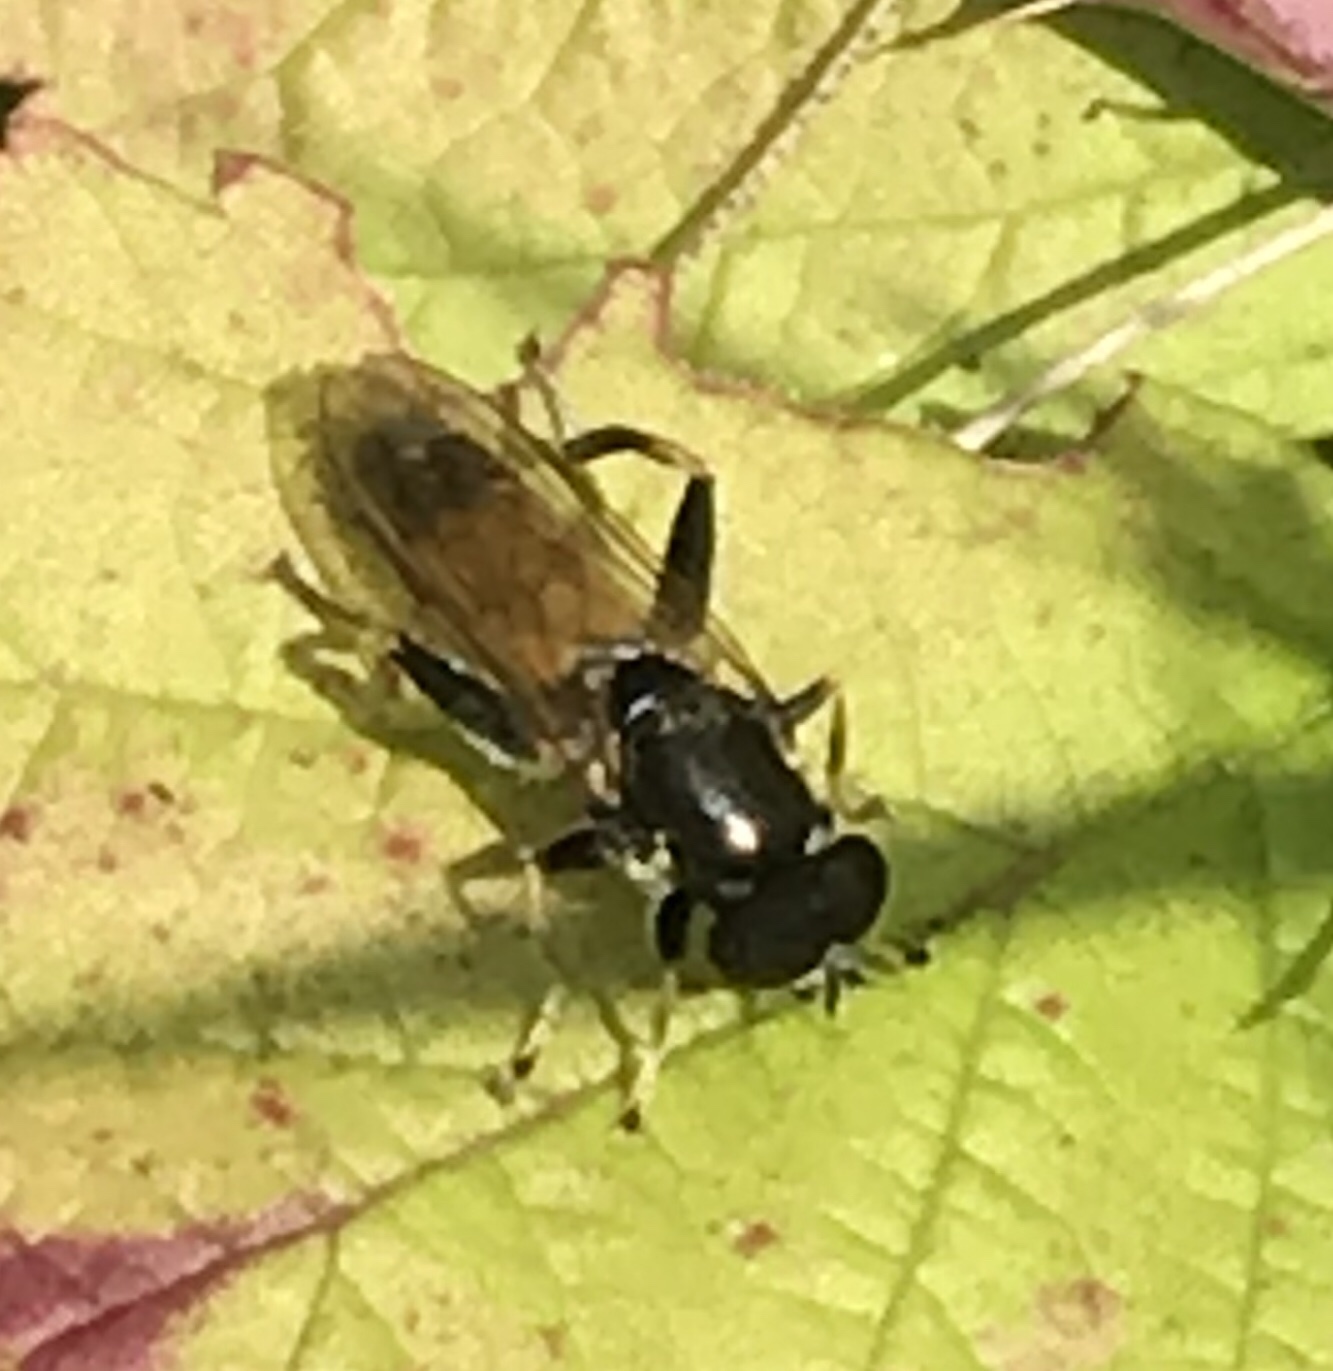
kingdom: Animalia
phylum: Arthropoda
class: Insecta
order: Diptera
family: Syrphidae
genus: Xylota
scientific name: Xylota segnis
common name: Brown-toed forest fly
